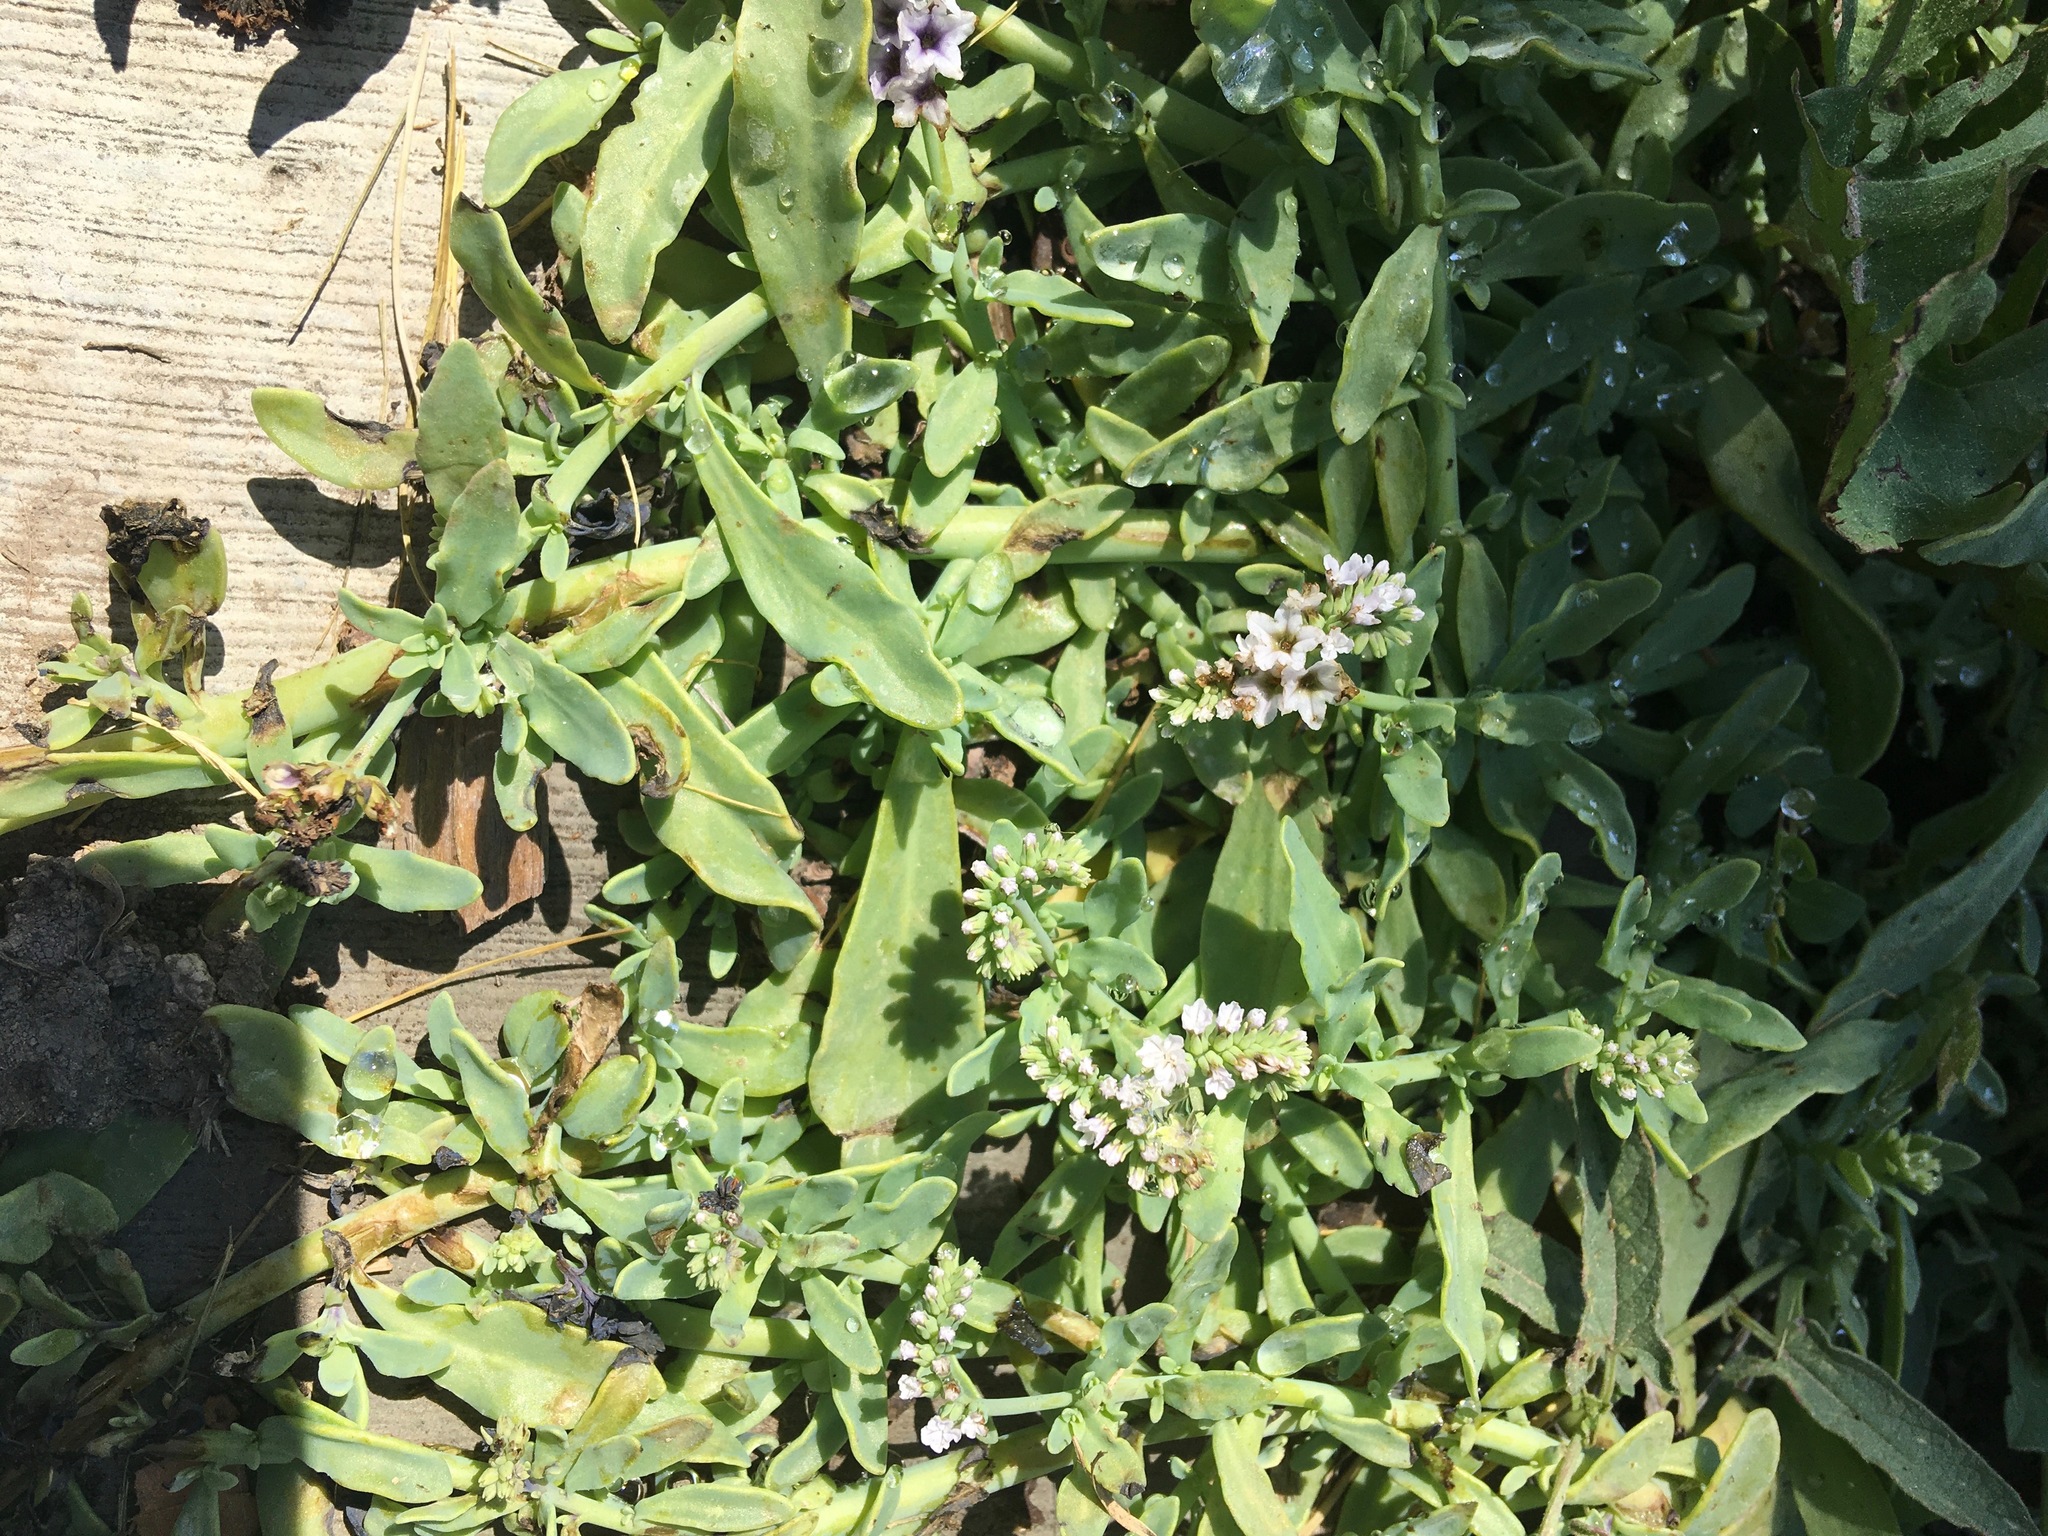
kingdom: Plantae
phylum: Tracheophyta
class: Magnoliopsida
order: Boraginales
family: Heliotropiaceae
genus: Heliotropium
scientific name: Heliotropium curassavicum
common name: Seaside heliotrope
